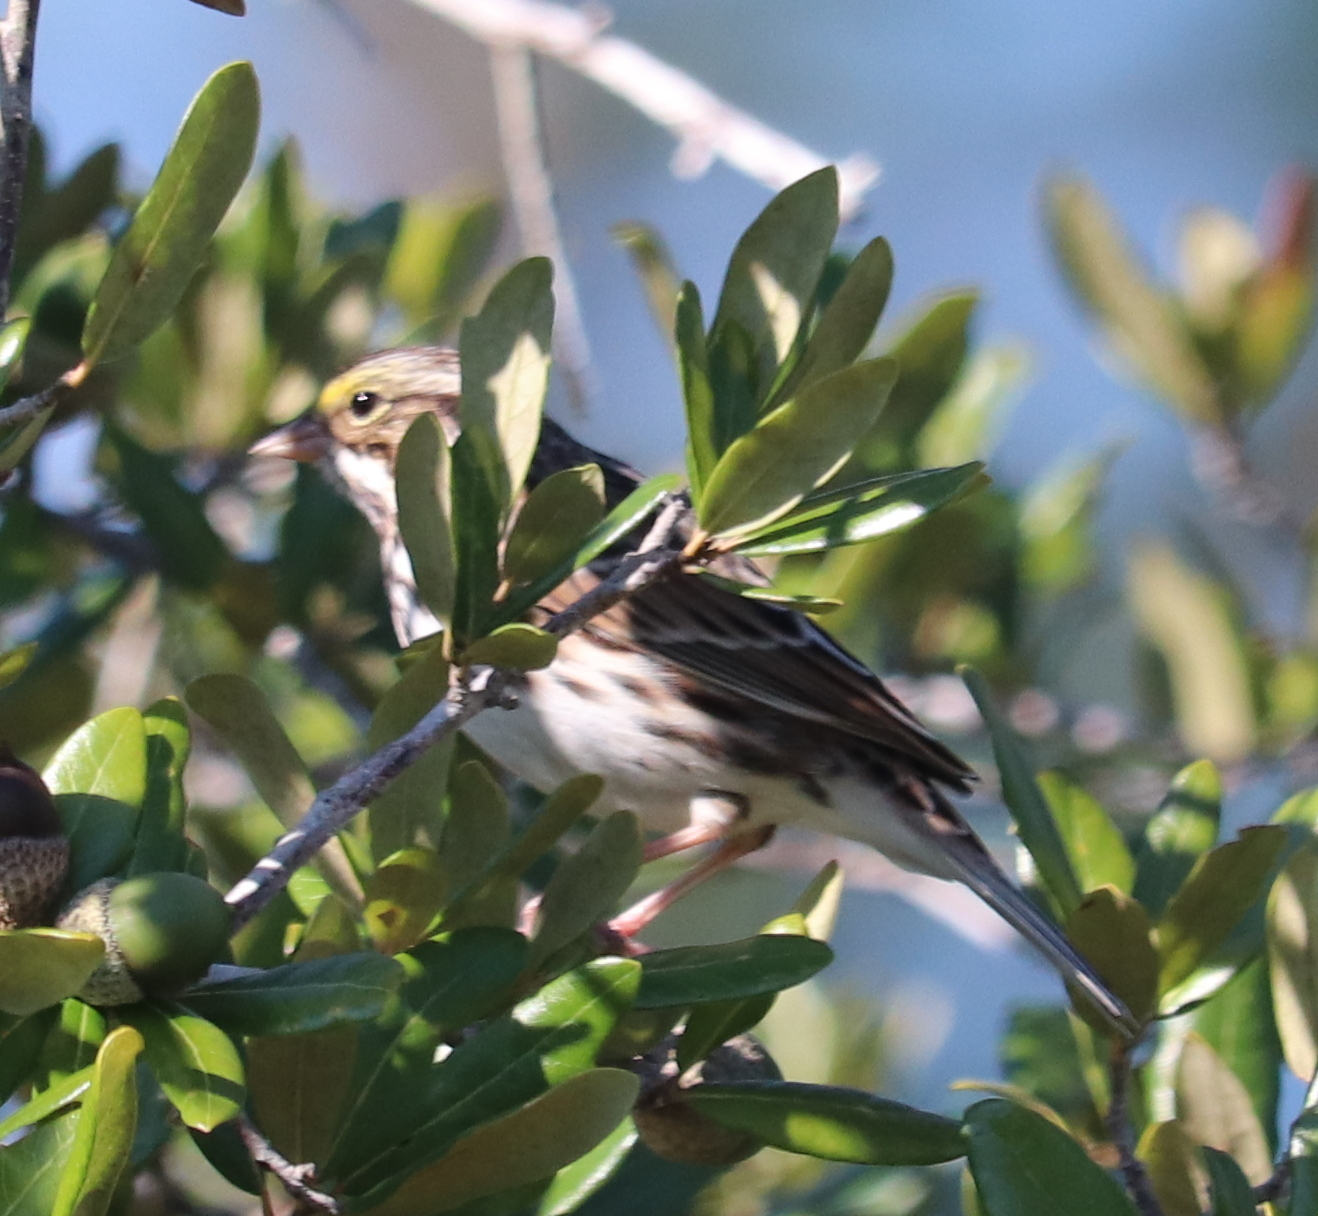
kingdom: Animalia
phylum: Chordata
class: Aves
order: Passeriformes
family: Passerellidae
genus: Passerculus
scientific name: Passerculus sandwichensis
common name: Savannah sparrow
